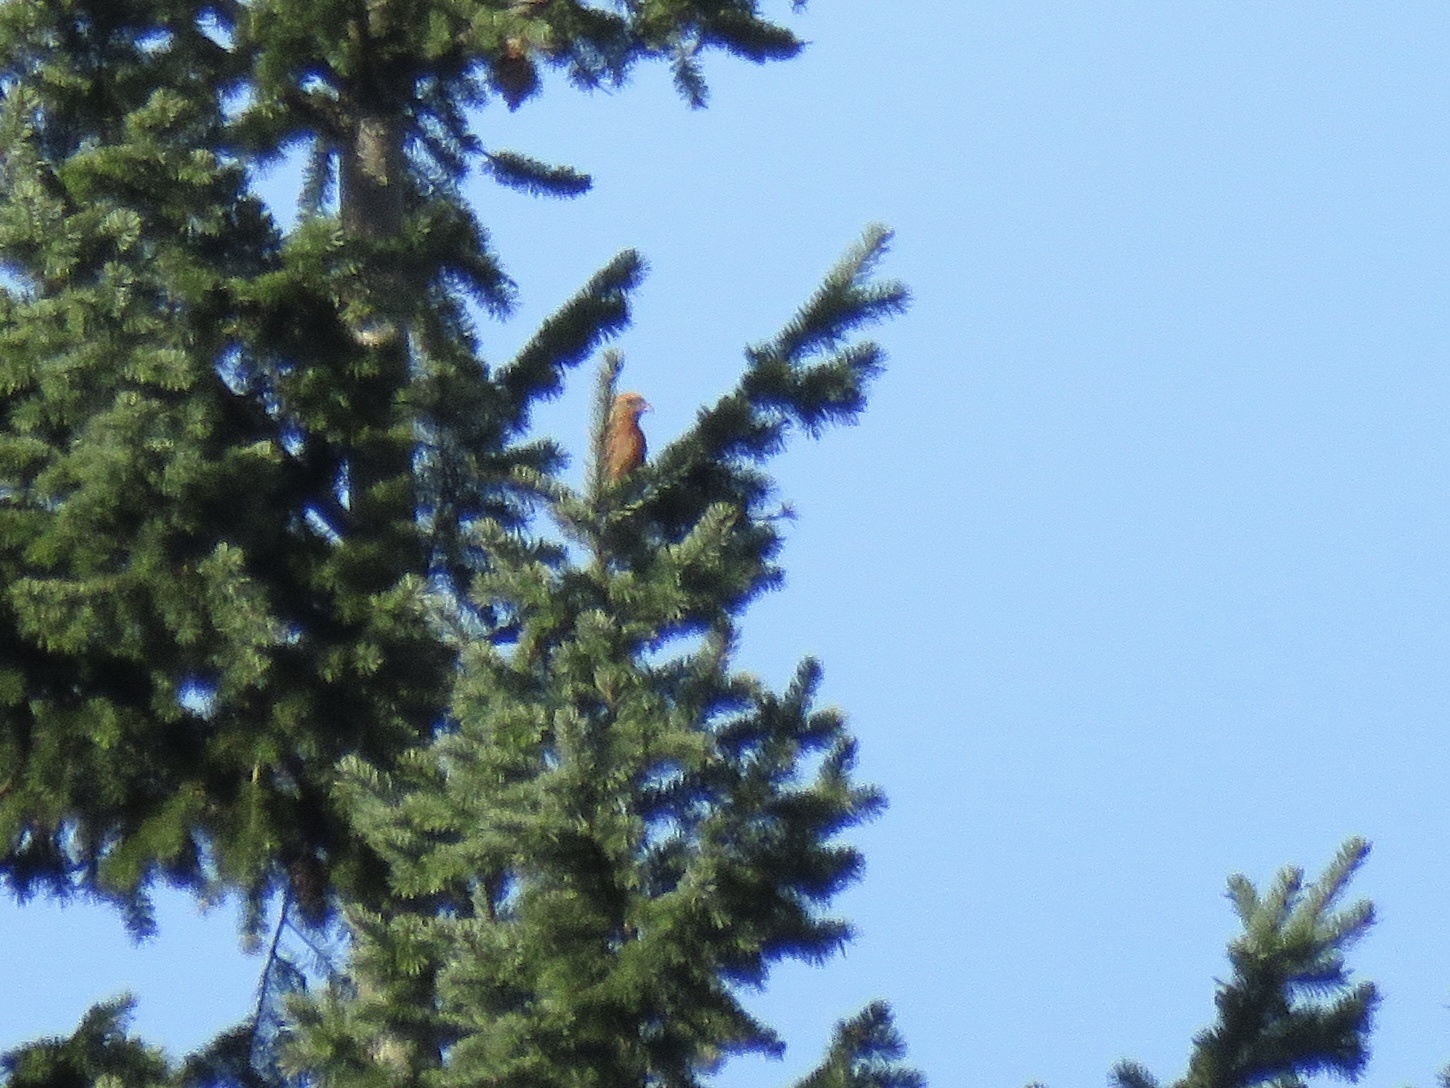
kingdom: Animalia
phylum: Chordata
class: Aves
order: Passeriformes
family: Fringillidae
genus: Loxia
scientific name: Loxia curvirostra
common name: Red crossbill
